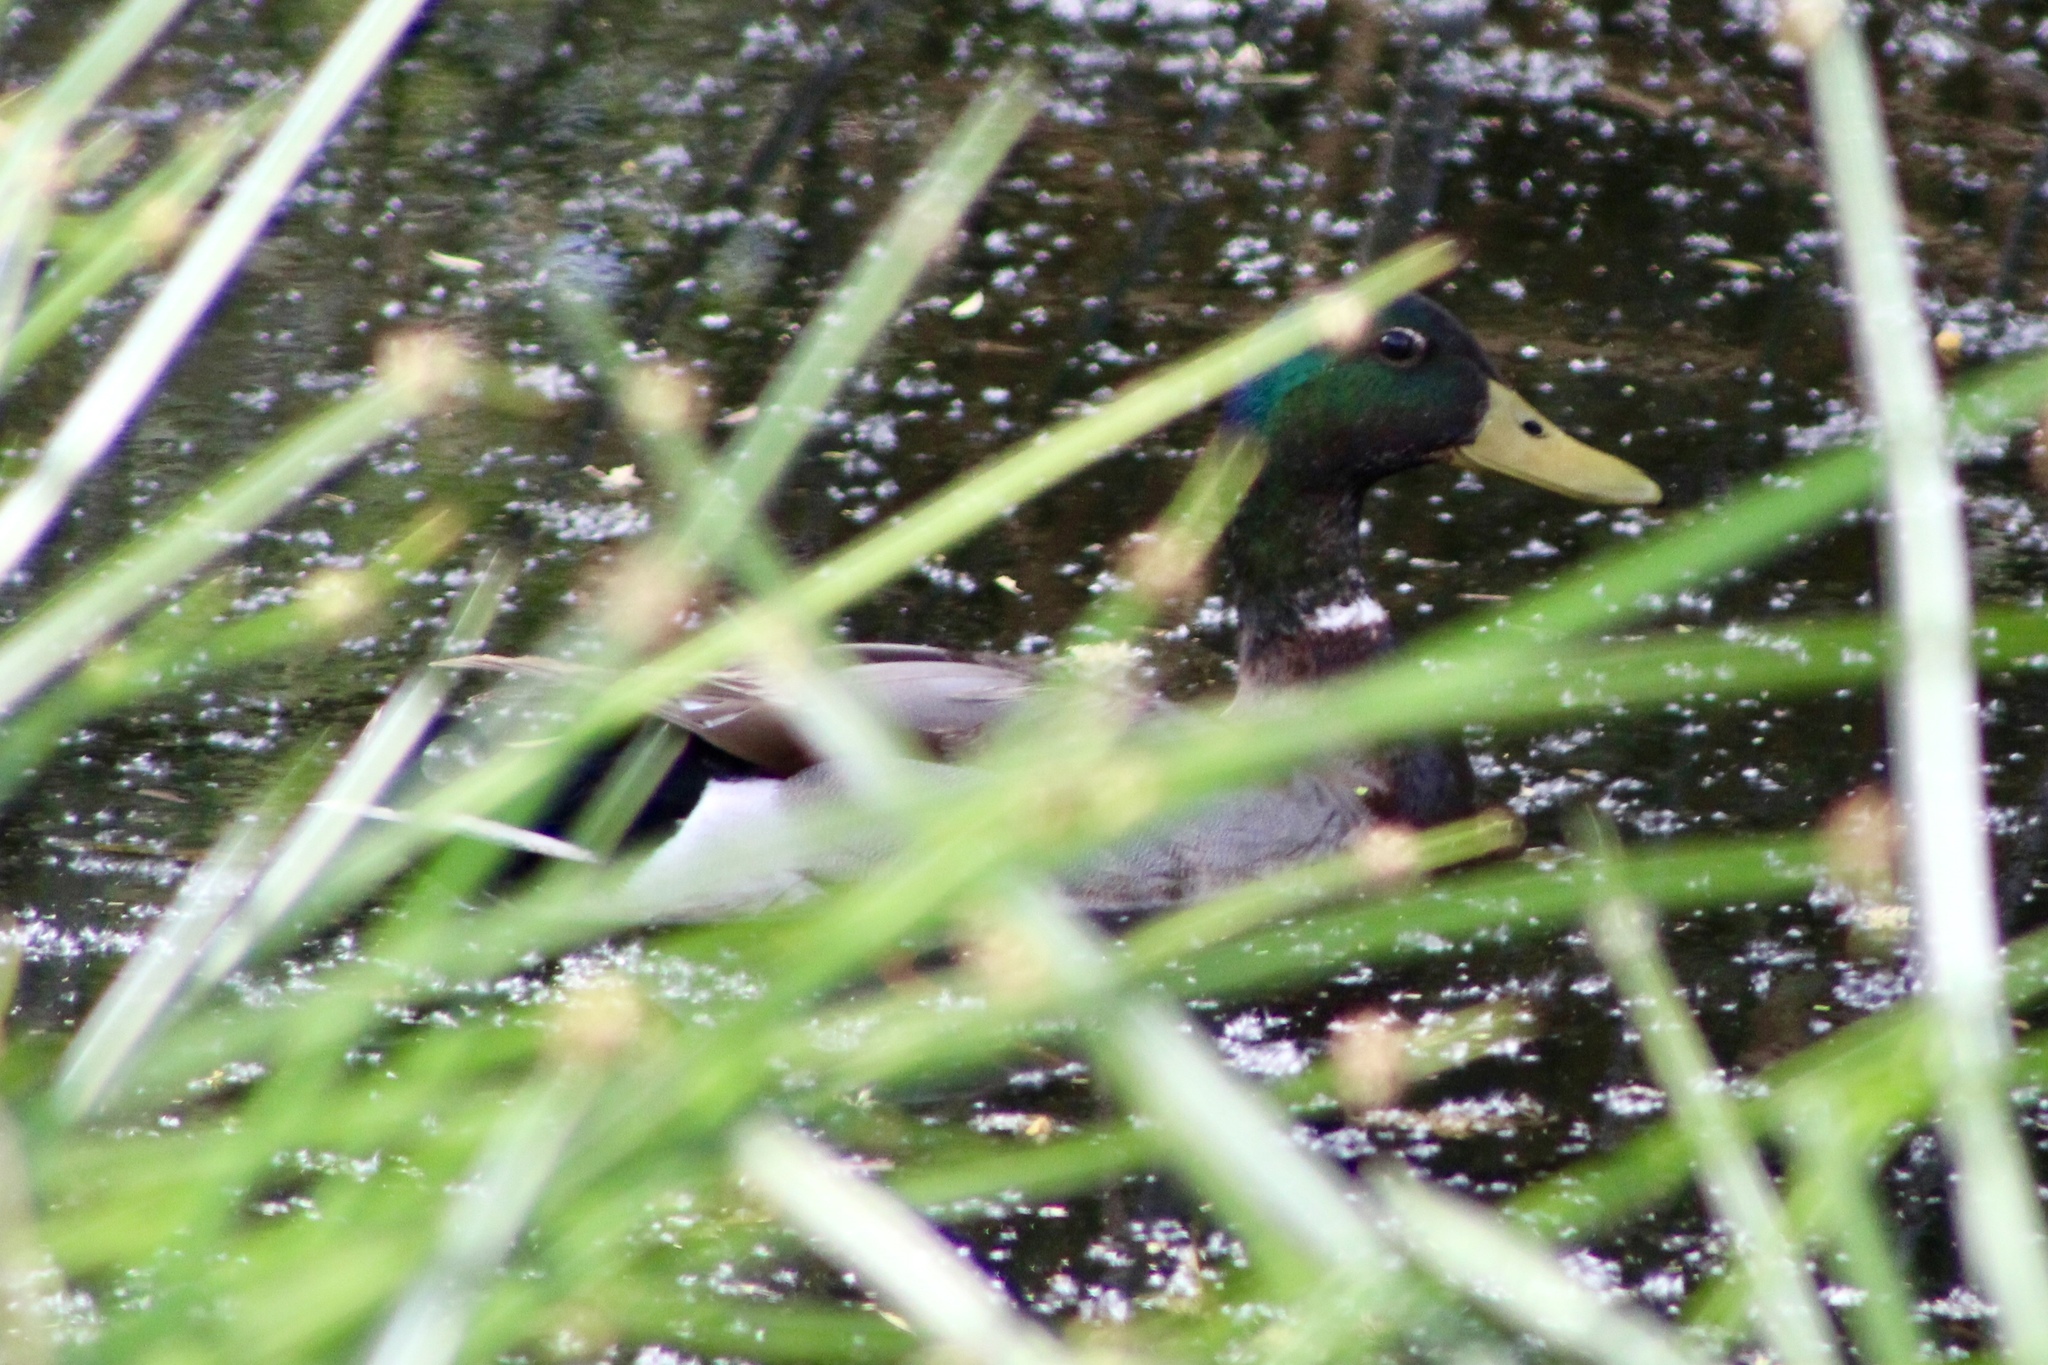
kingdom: Animalia
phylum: Chordata
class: Aves
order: Anseriformes
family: Anatidae
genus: Anas
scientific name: Anas platyrhynchos
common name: Mallard
